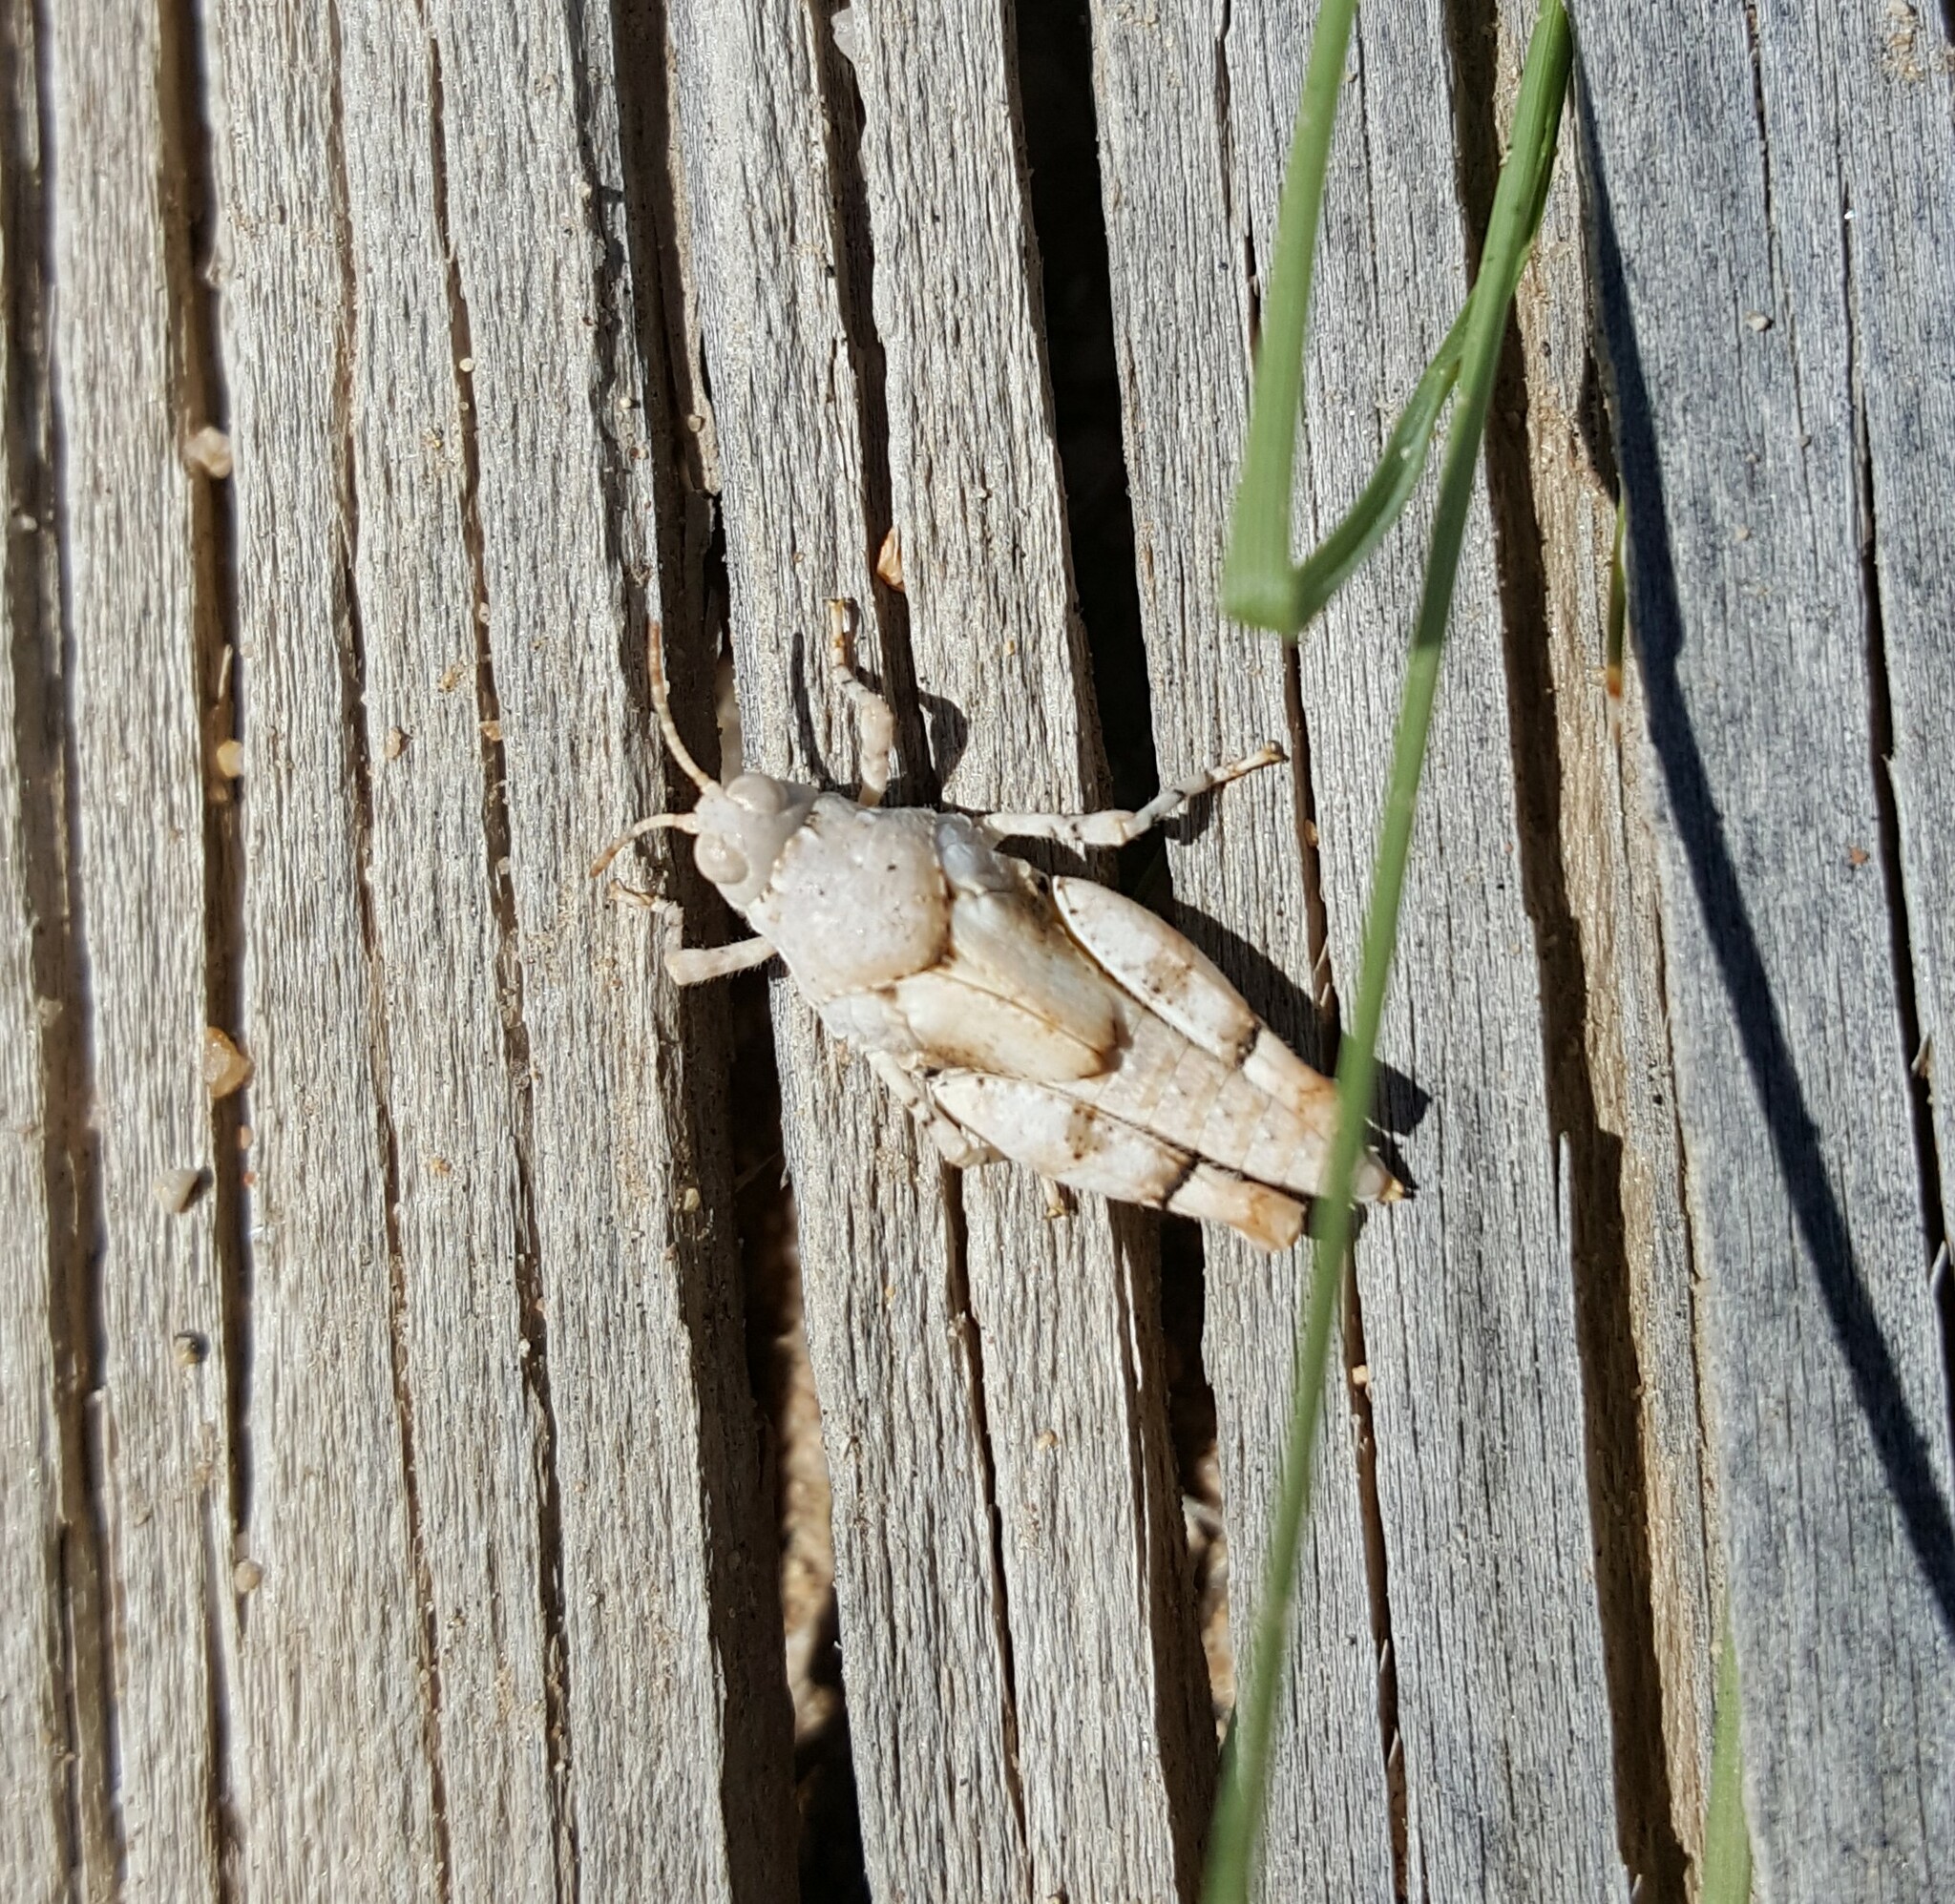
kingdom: Animalia
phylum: Arthropoda
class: Insecta
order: Orthoptera
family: Acrididae
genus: Cibolacris
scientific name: Cibolacris parviceps
